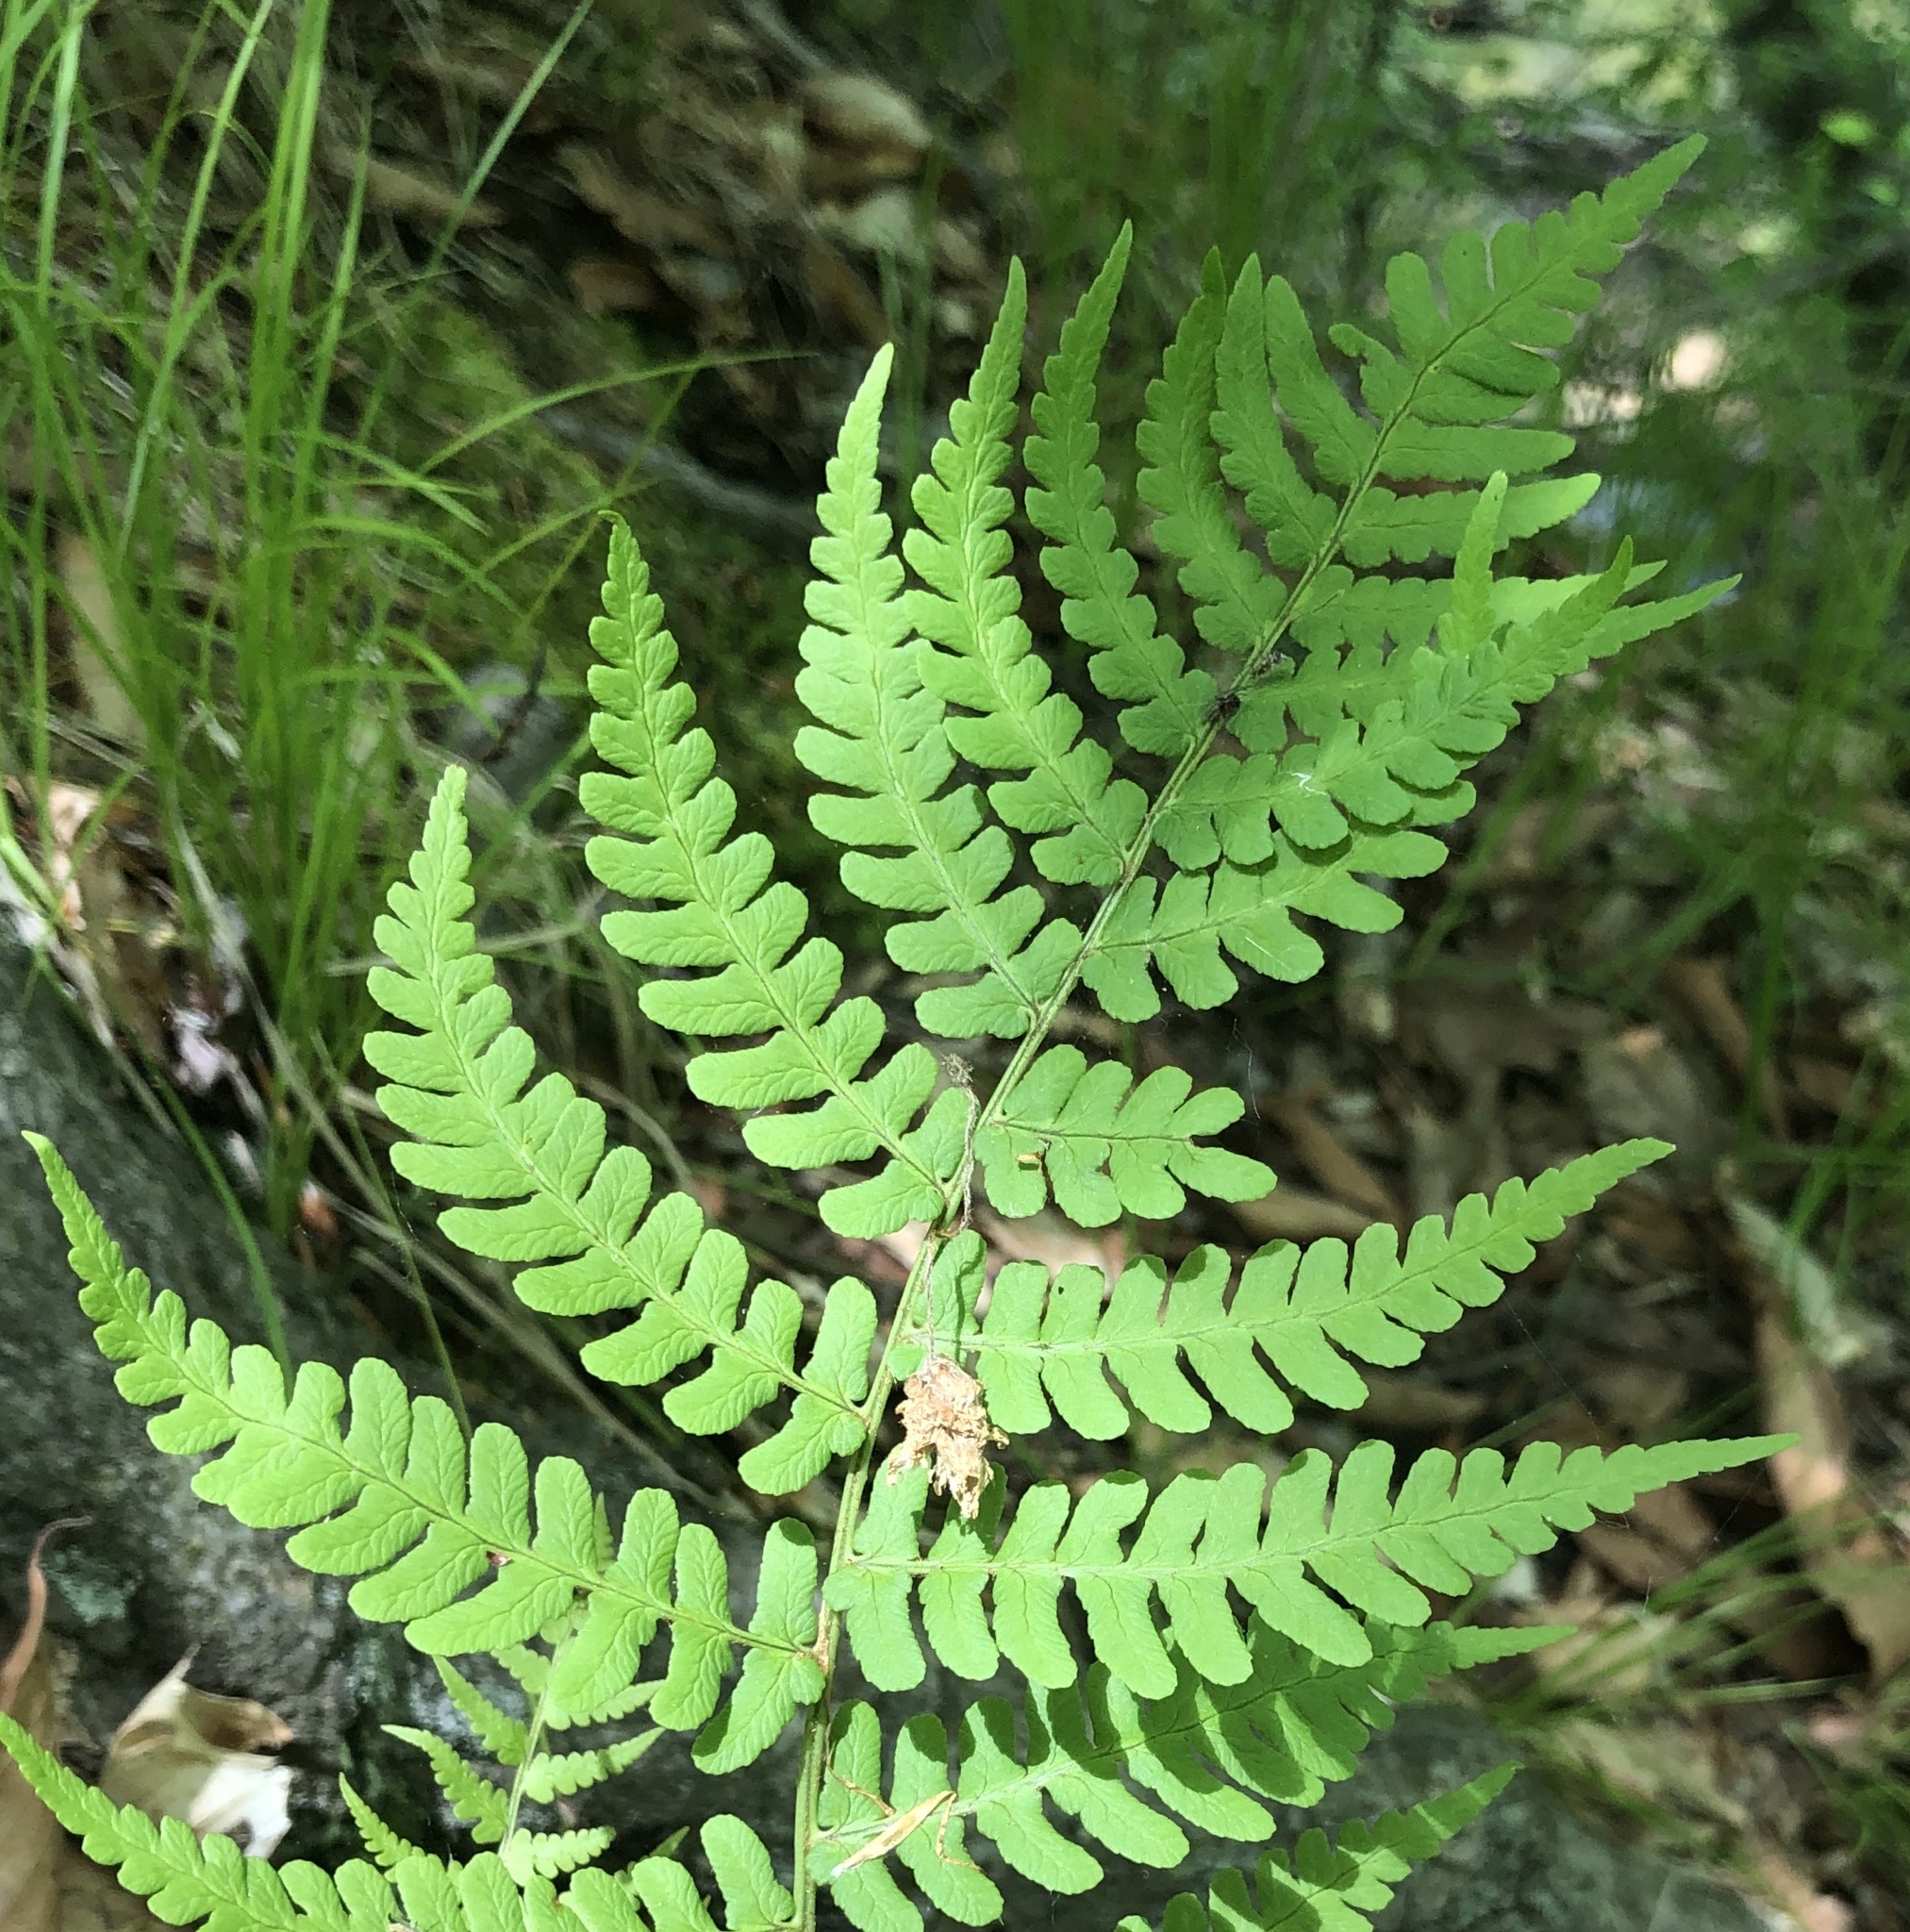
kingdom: Plantae
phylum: Tracheophyta
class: Polypodiopsida
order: Polypodiales
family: Dryopteridaceae
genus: Dryopteris
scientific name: Dryopteris marginalis
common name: Marginal wood fern
